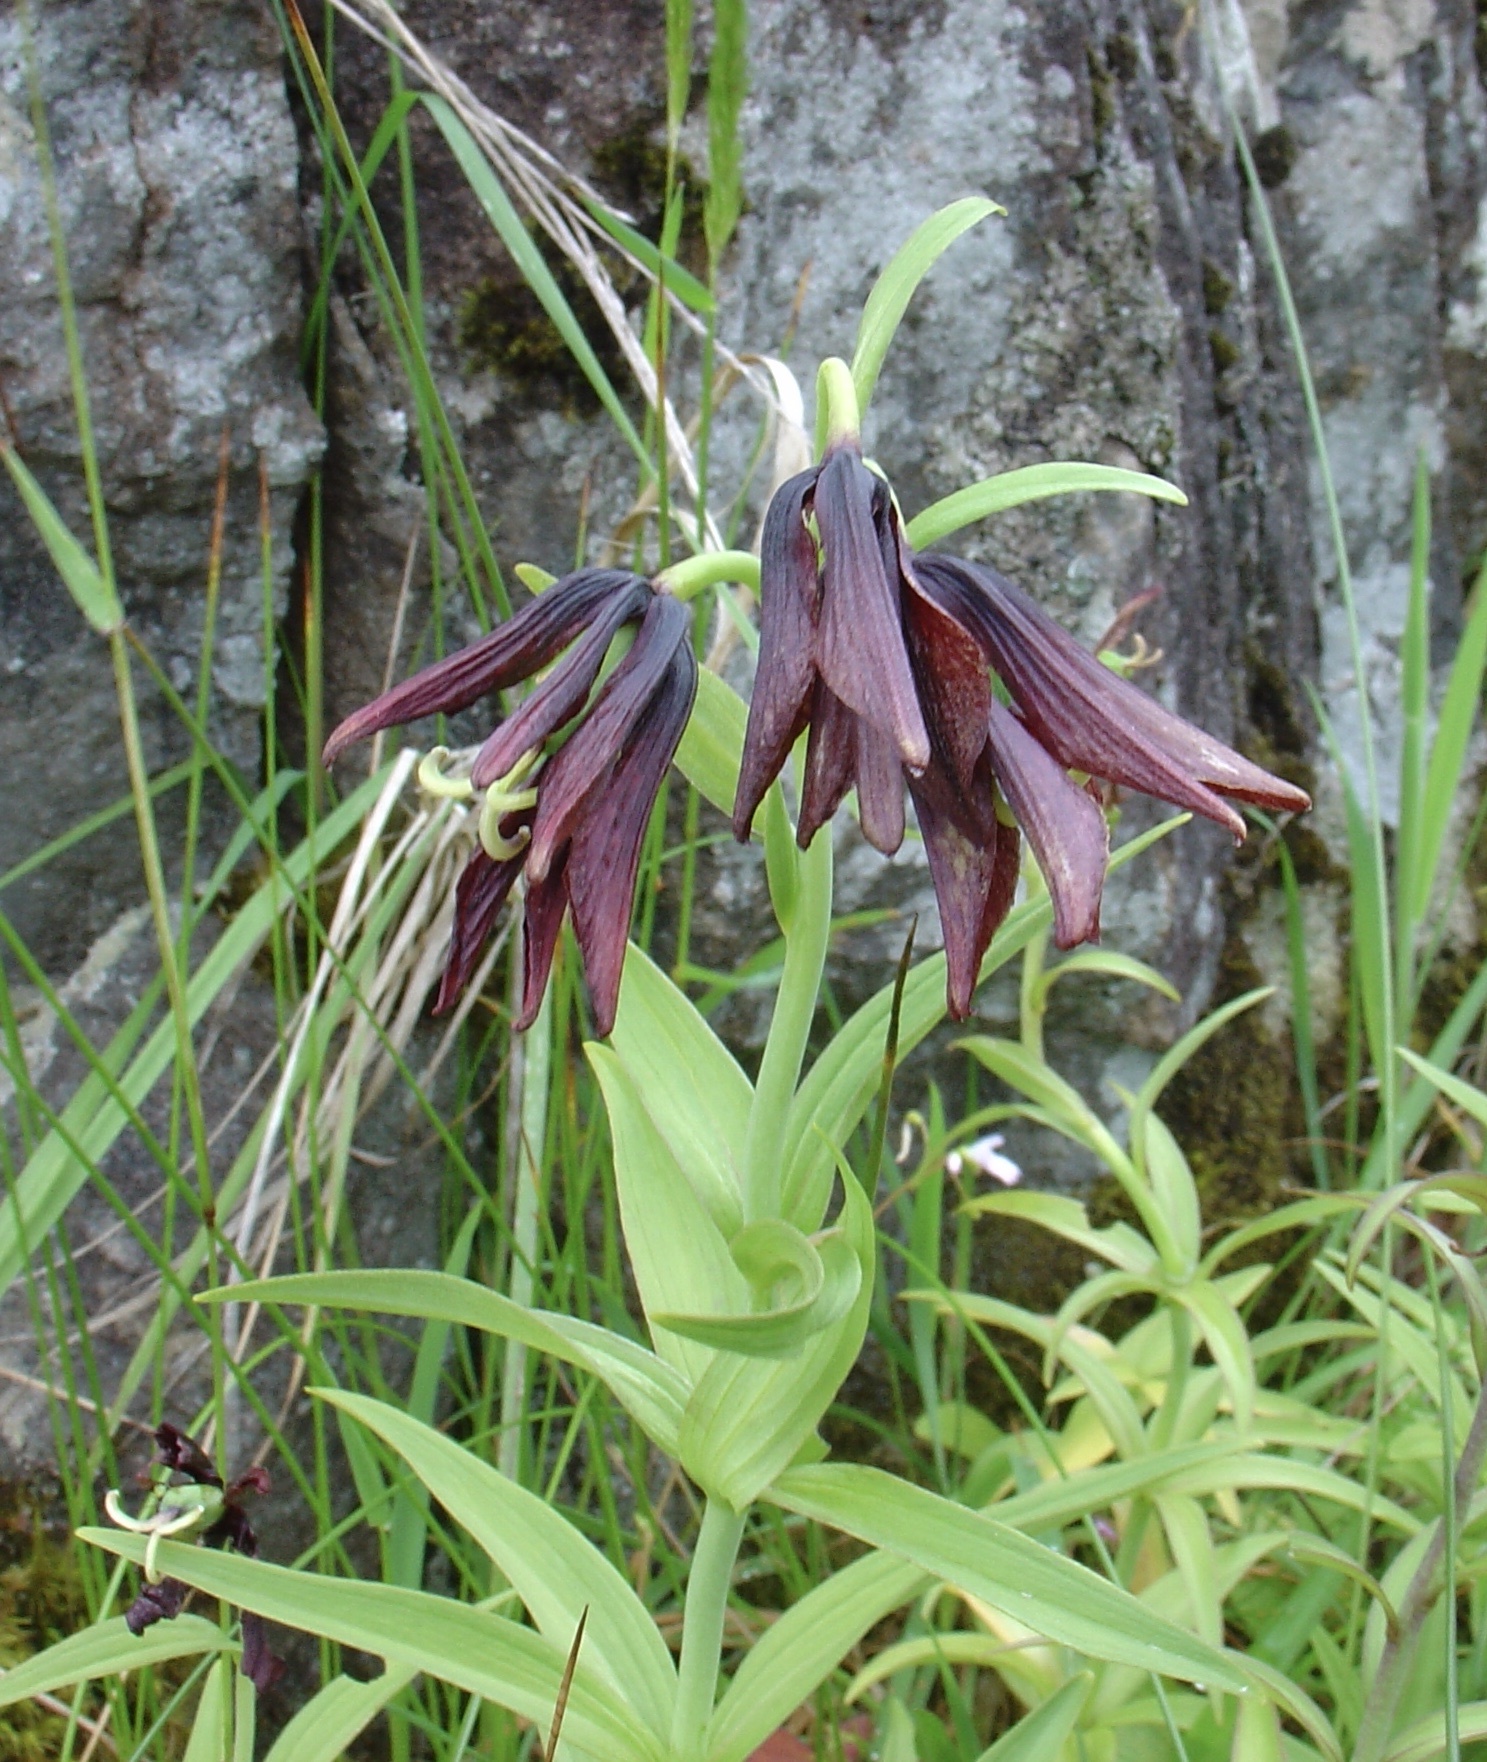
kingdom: Plantae
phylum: Tracheophyta
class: Liliopsida
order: Liliales
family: Liliaceae
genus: Fritillaria
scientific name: Fritillaria camschatcensis
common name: Kamchatka fritillary
